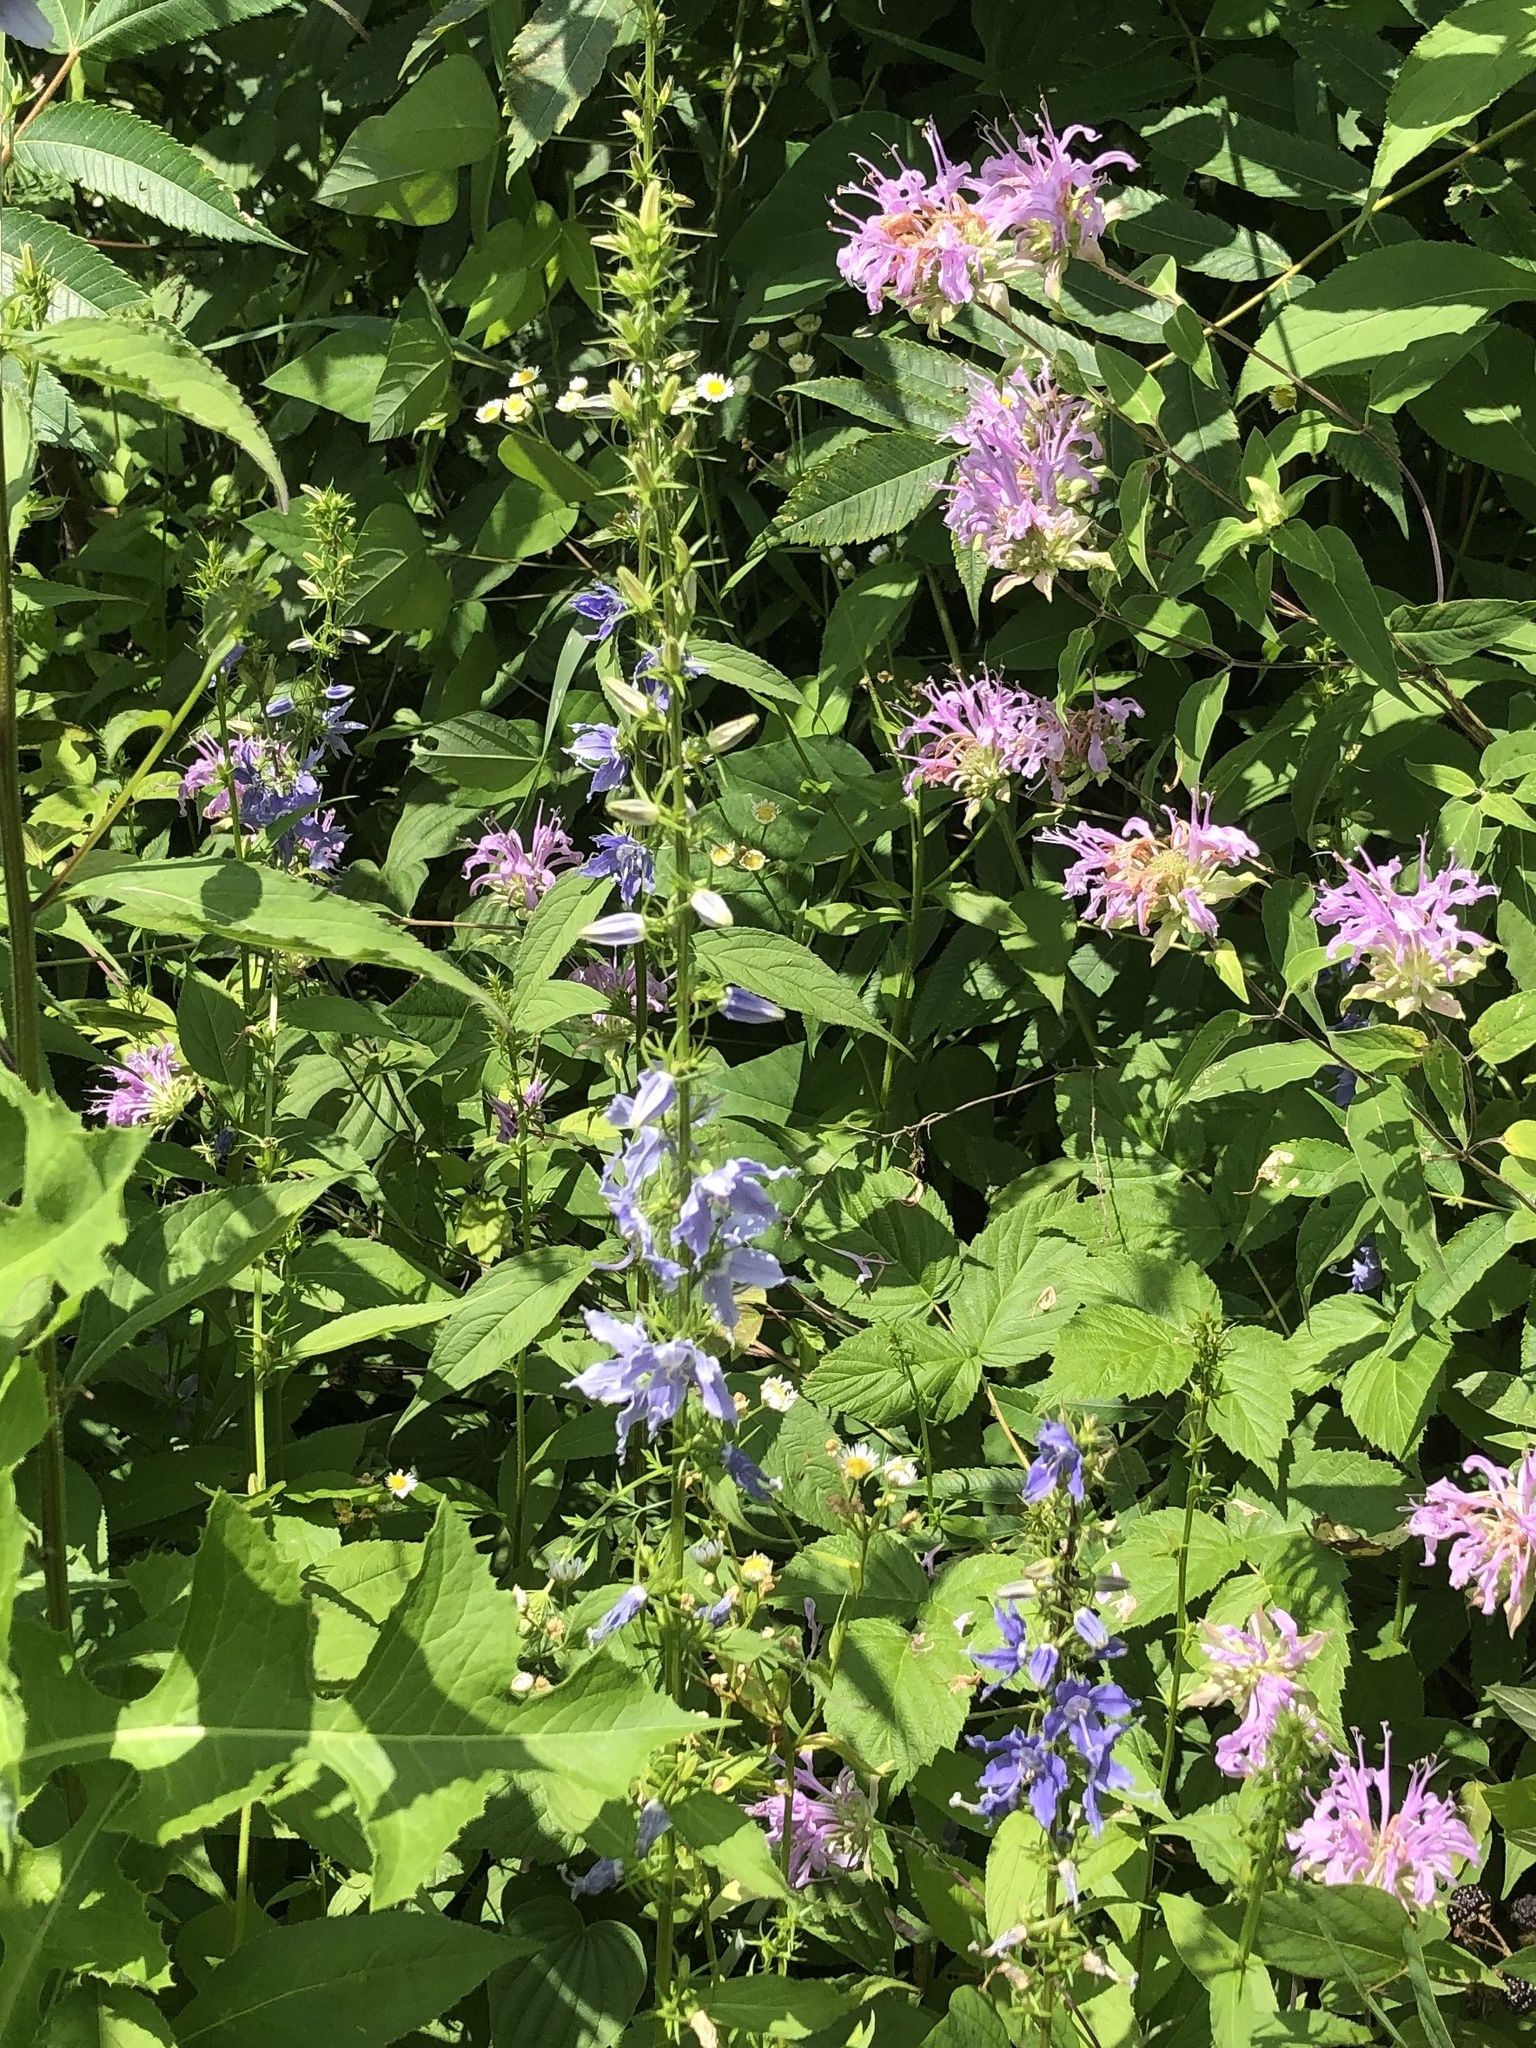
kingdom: Plantae
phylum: Tracheophyta
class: Magnoliopsida
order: Asterales
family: Campanulaceae
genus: Campanulastrum
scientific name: Campanulastrum americanum
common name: American bellflower
